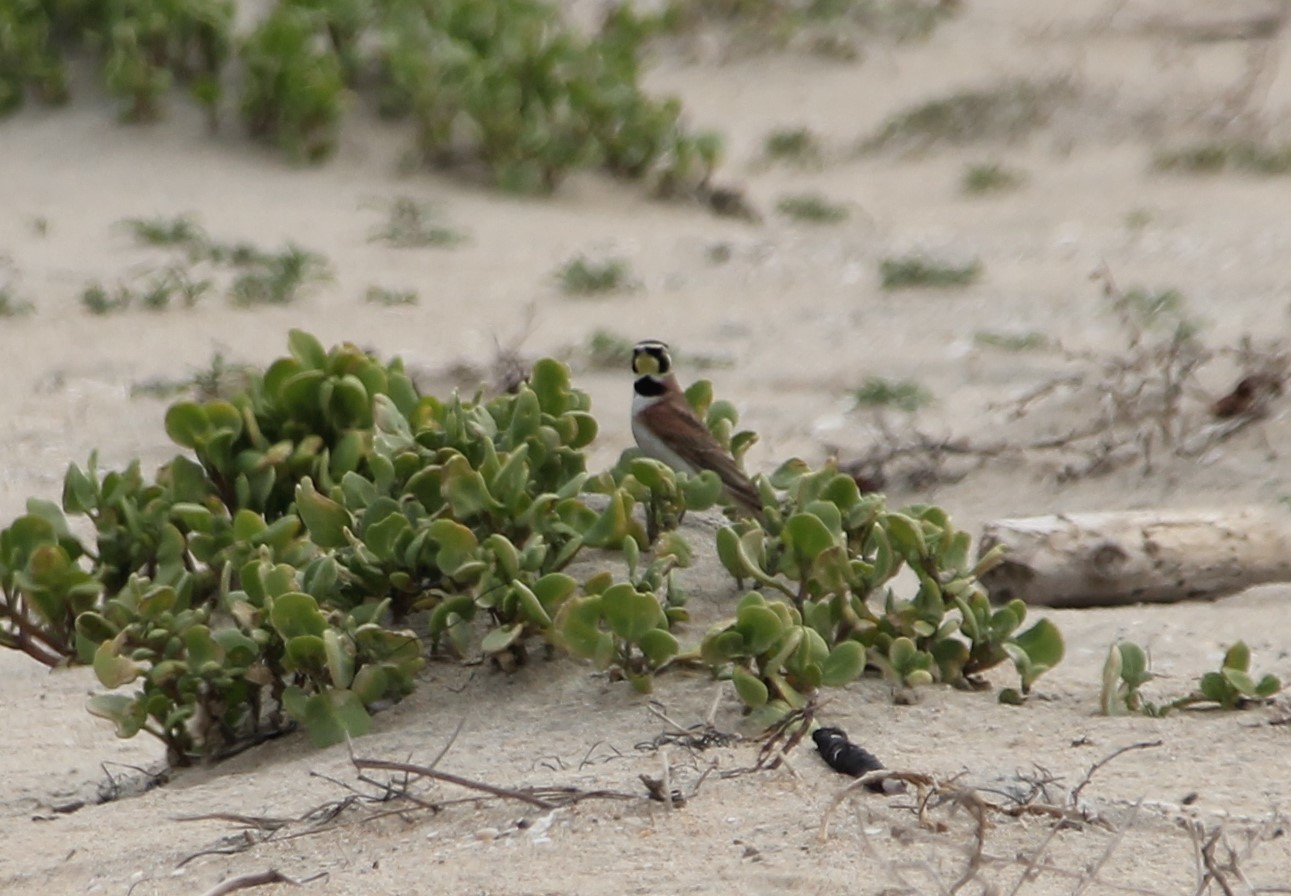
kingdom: Animalia
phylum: Chordata
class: Aves
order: Passeriformes
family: Alaudidae
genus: Eremophila
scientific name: Eremophila alpestris
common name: Horned lark
